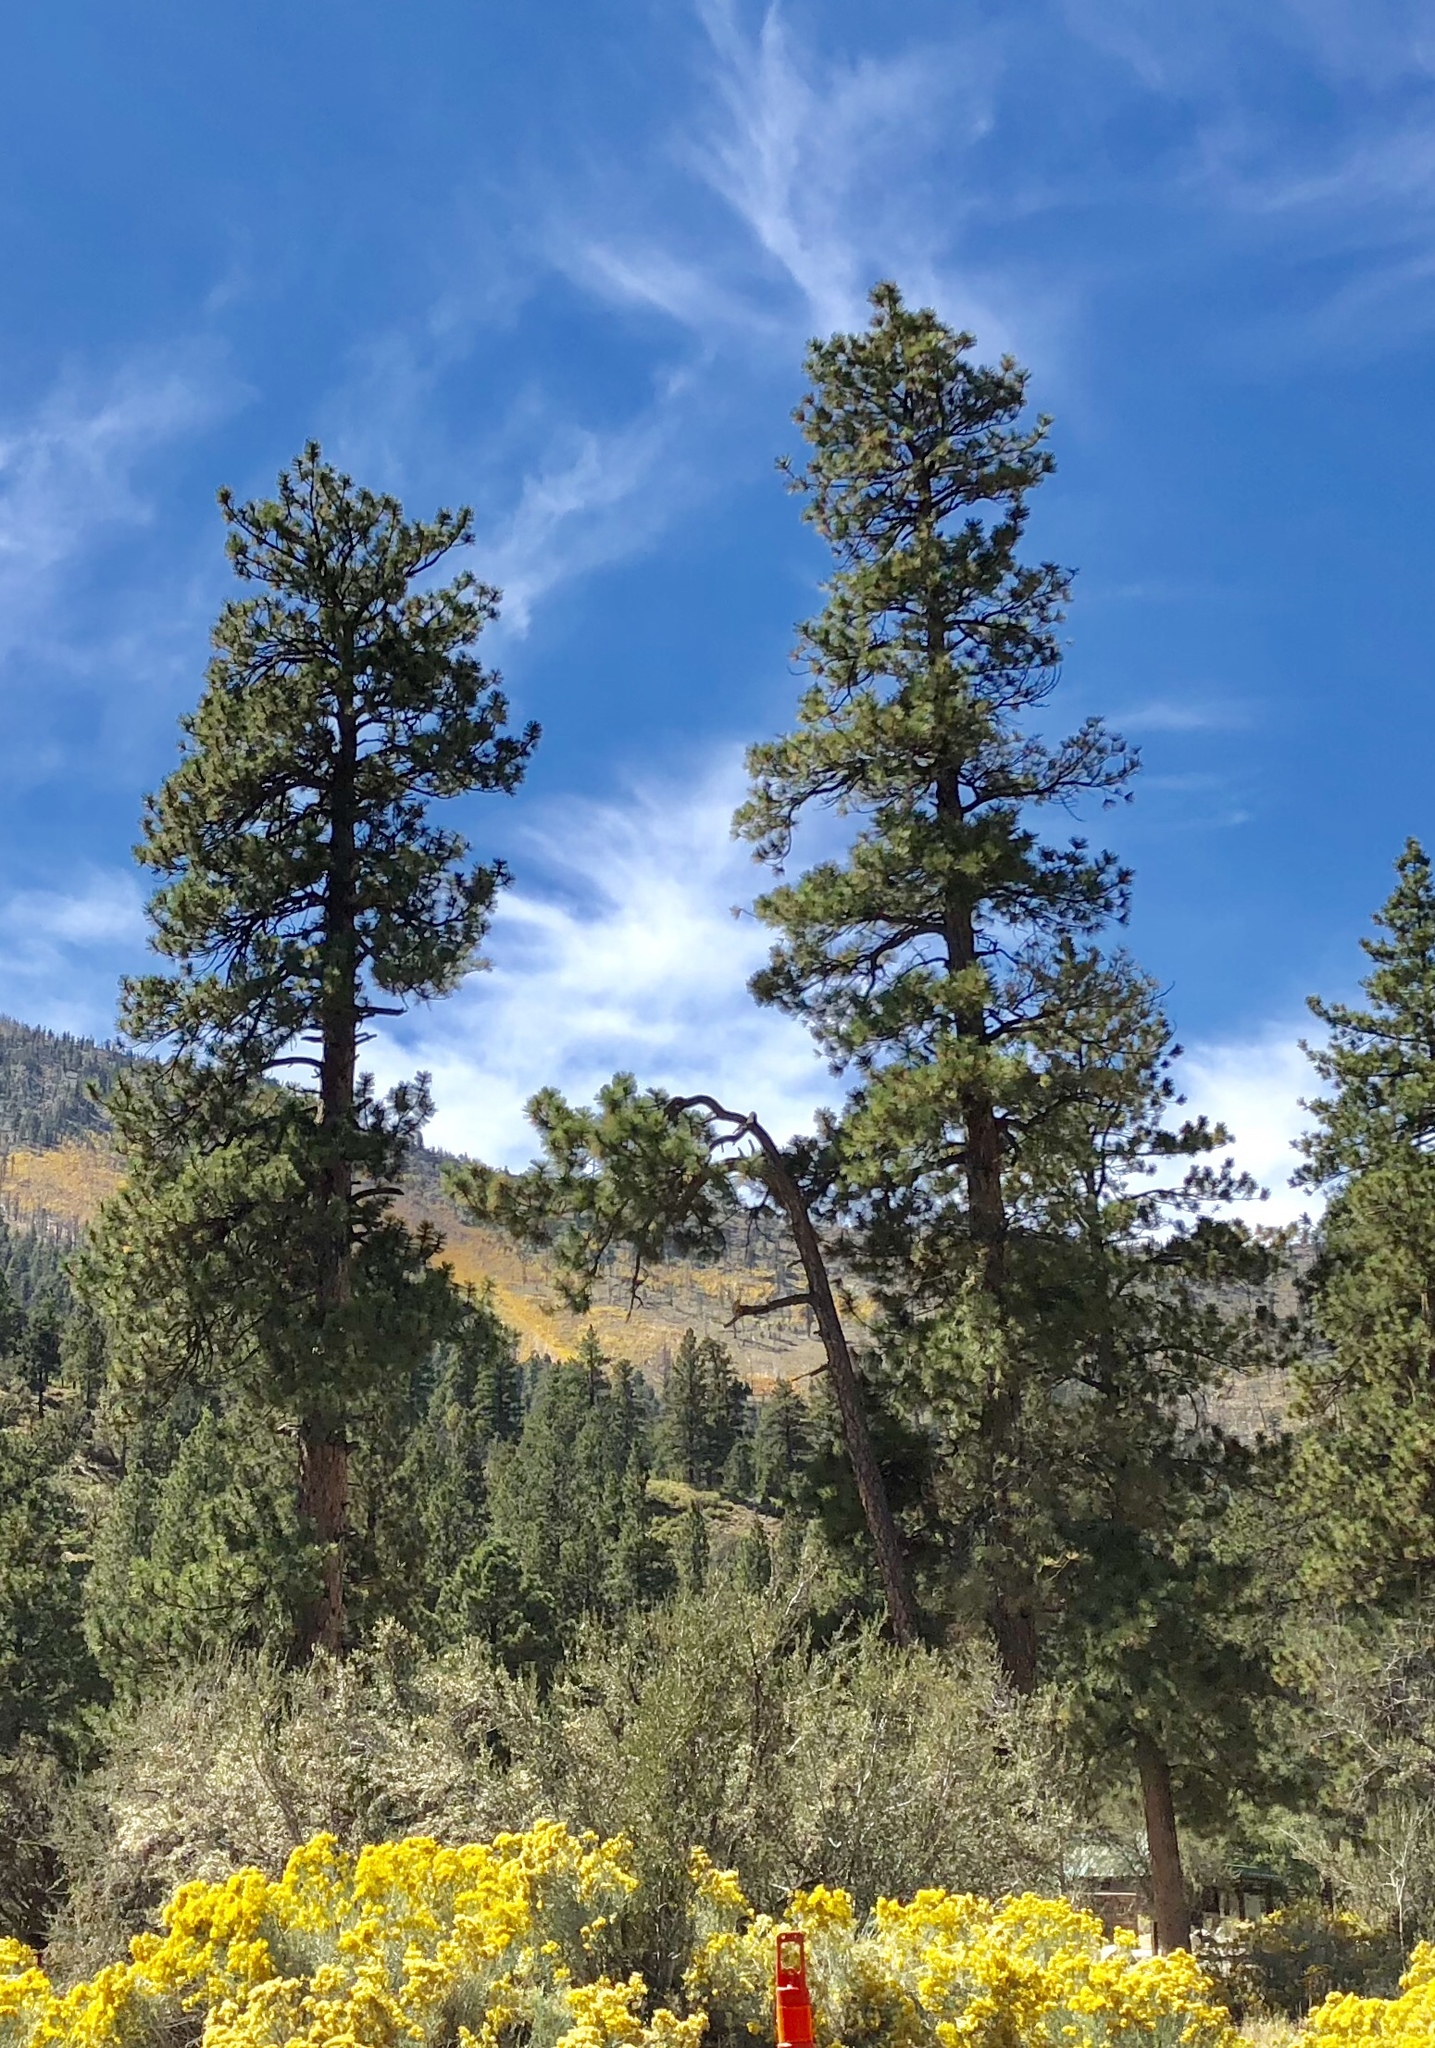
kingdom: Plantae
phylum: Tracheophyta
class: Pinopsida
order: Pinales
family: Pinaceae
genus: Pinus
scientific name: Pinus ponderosa
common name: Western yellow-pine
